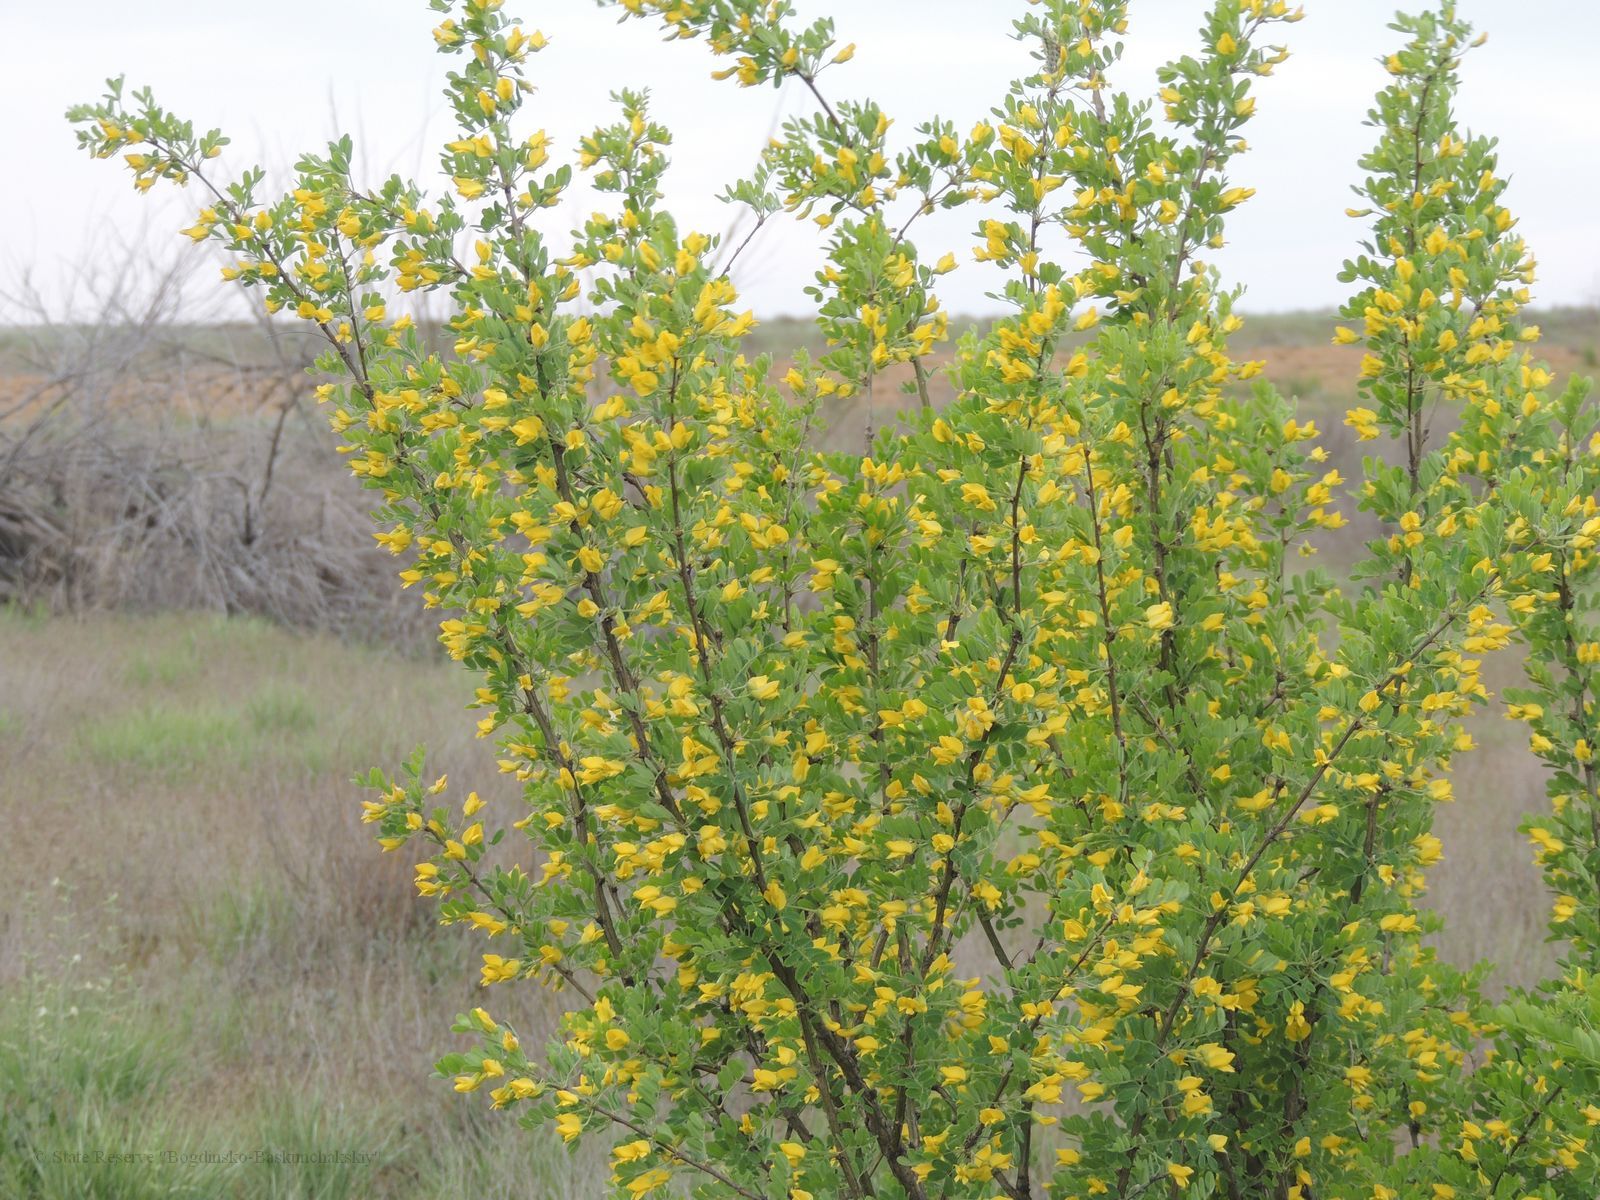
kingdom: Plantae
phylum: Tracheophyta
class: Magnoliopsida
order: Fabales
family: Fabaceae
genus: Caragana
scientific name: Caragana arborescens
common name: Siberian peashrub
